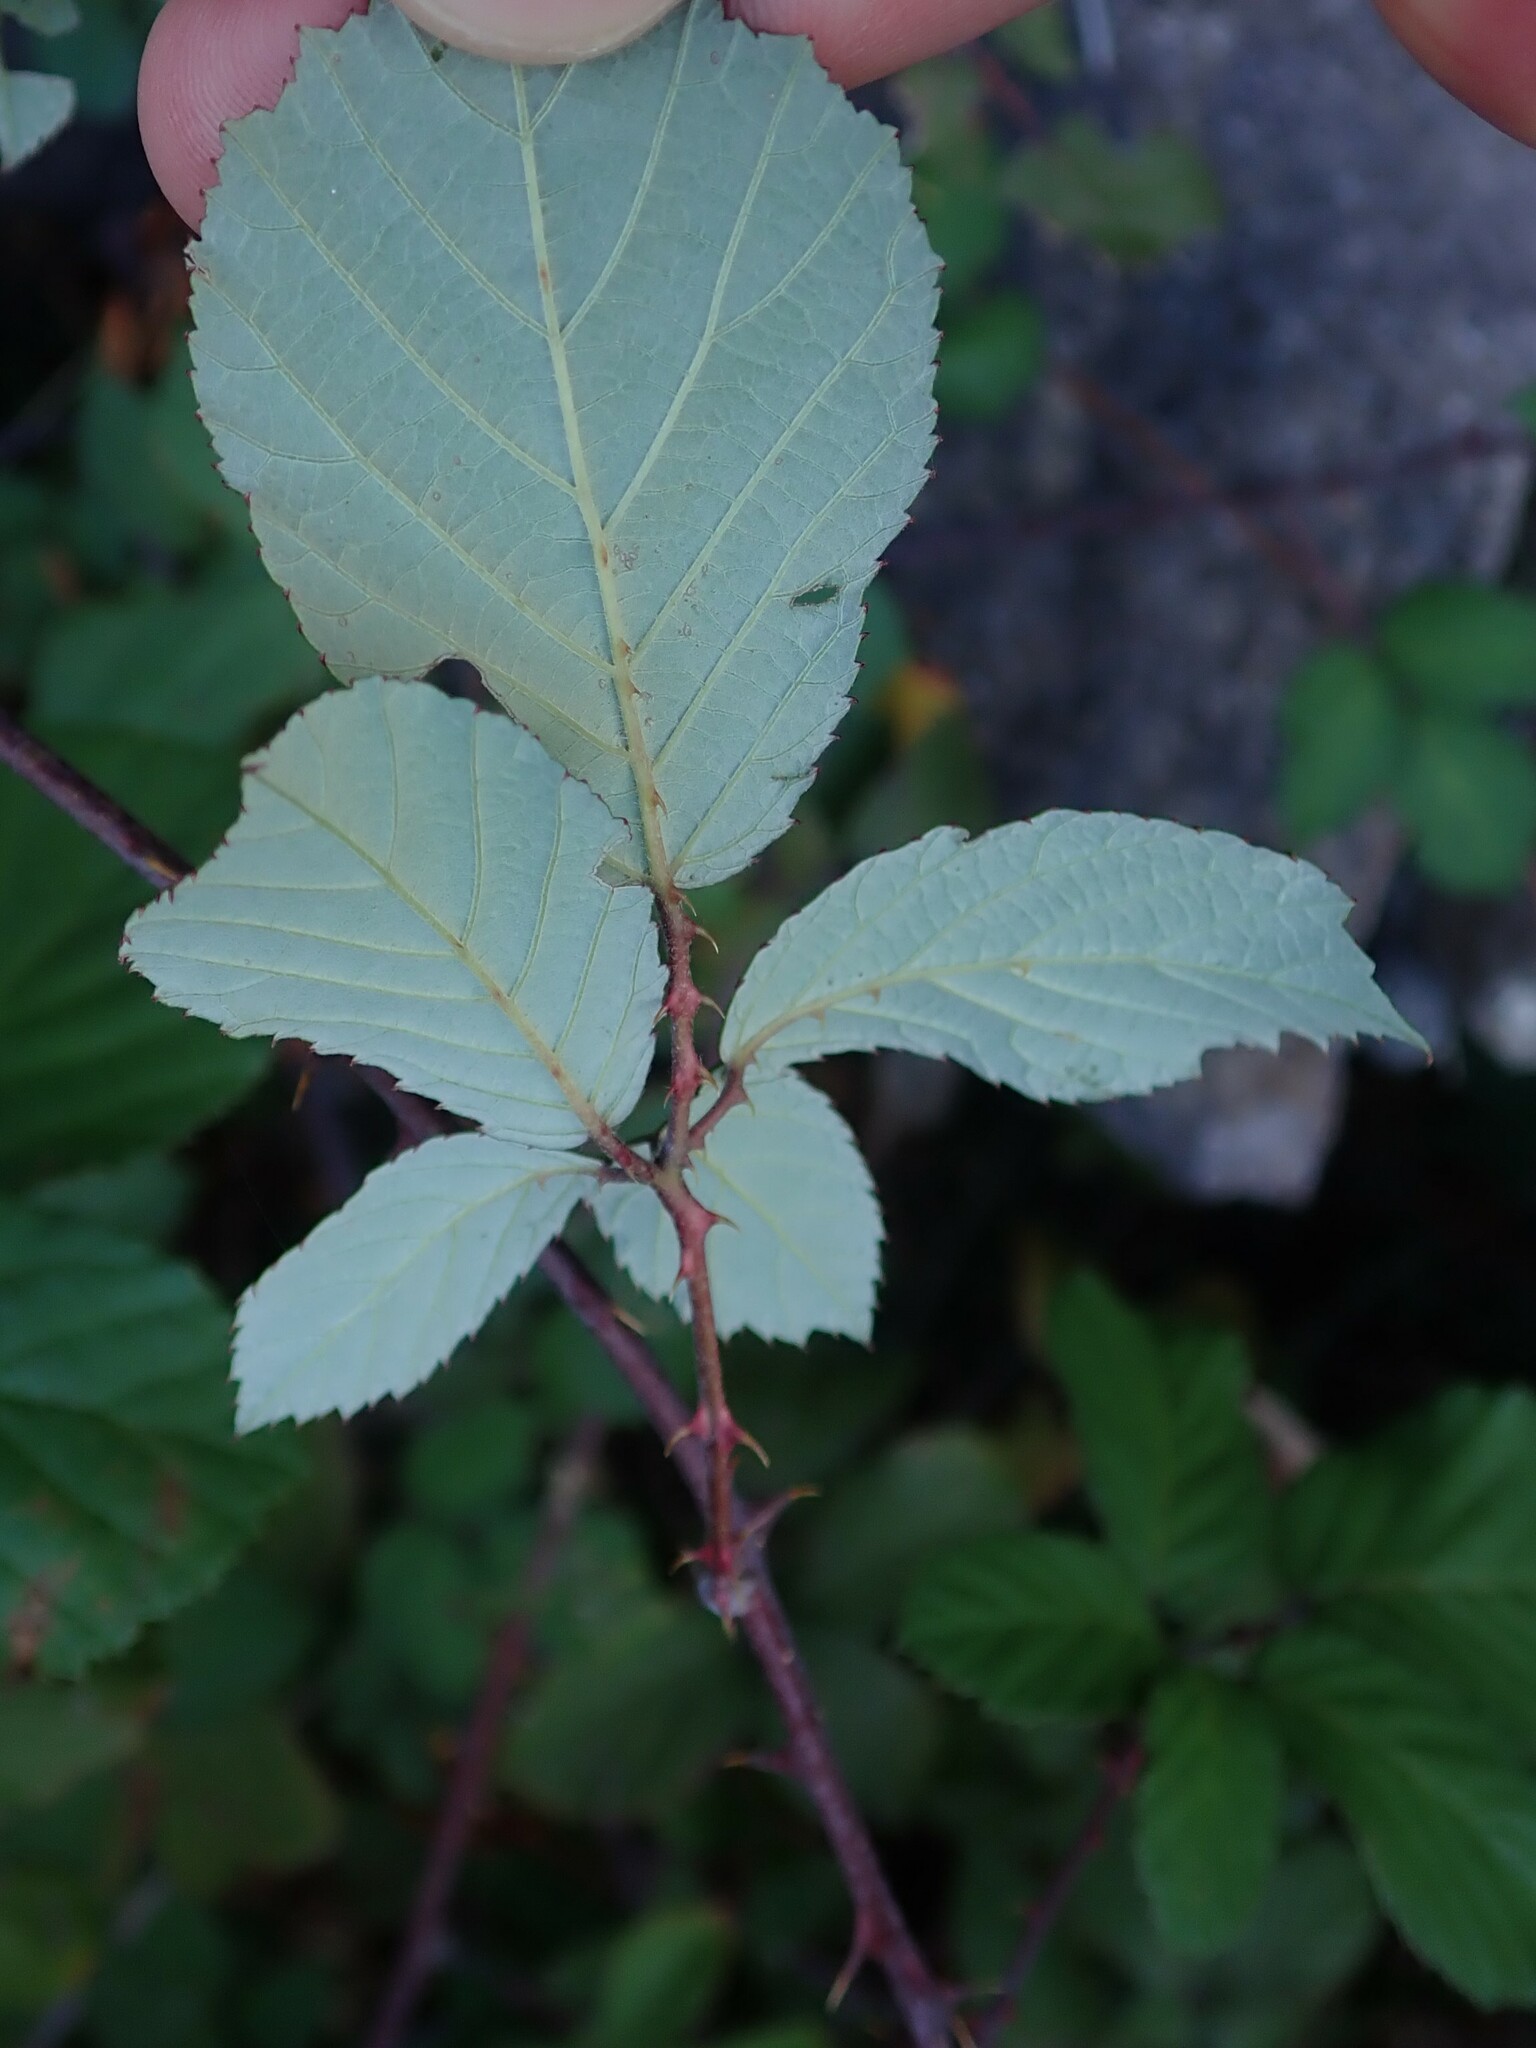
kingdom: Plantae
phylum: Tracheophyta
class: Magnoliopsida
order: Rosales
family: Rosaceae
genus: Rubus
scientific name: Rubus ulmifolius
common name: Elmleaf blackberry
